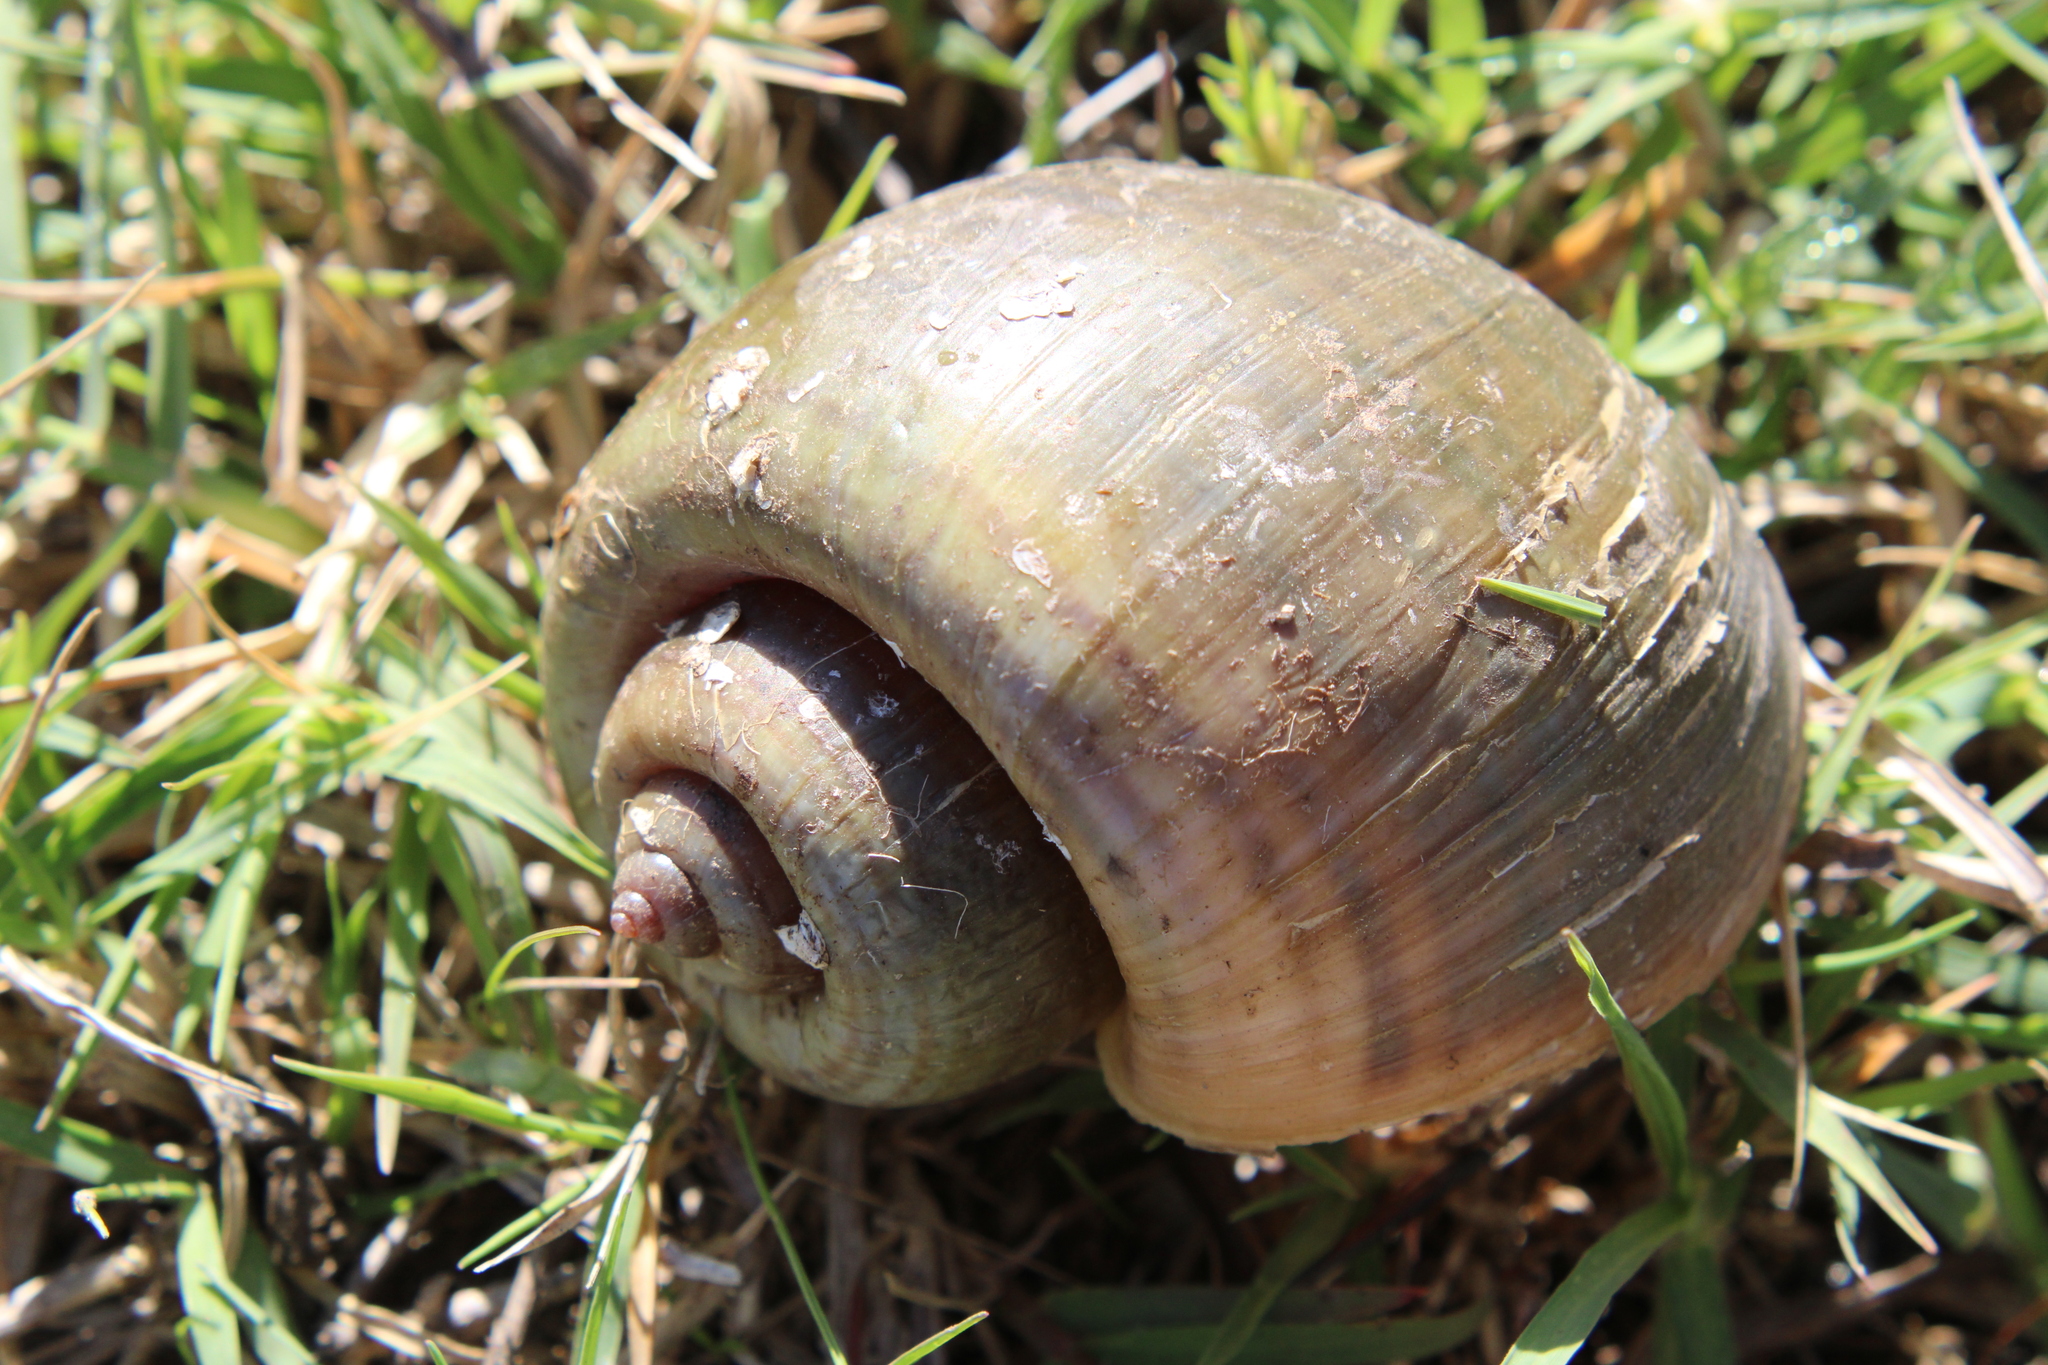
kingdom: Animalia
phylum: Mollusca
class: Gastropoda
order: Architaenioglossa
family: Ampullariidae
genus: Pomacea
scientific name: Pomacea canaliculata
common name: Channeled applesnail
